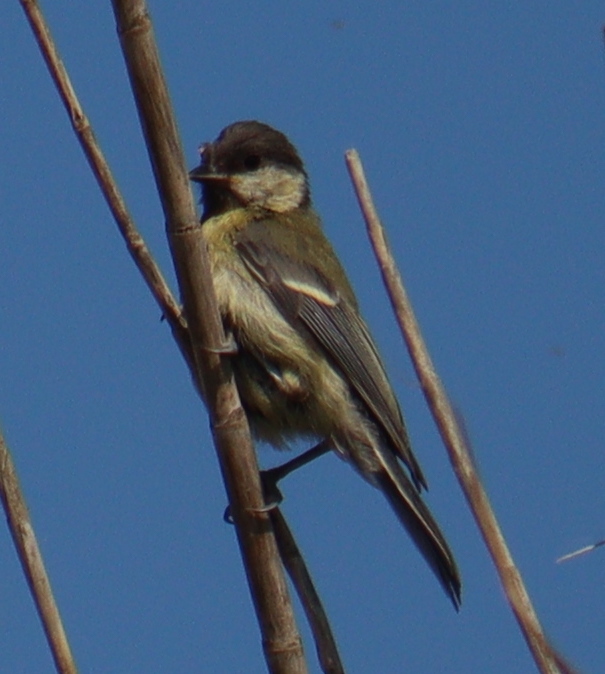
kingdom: Animalia
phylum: Chordata
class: Aves
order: Passeriformes
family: Paridae
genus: Parus
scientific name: Parus major
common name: Great tit
